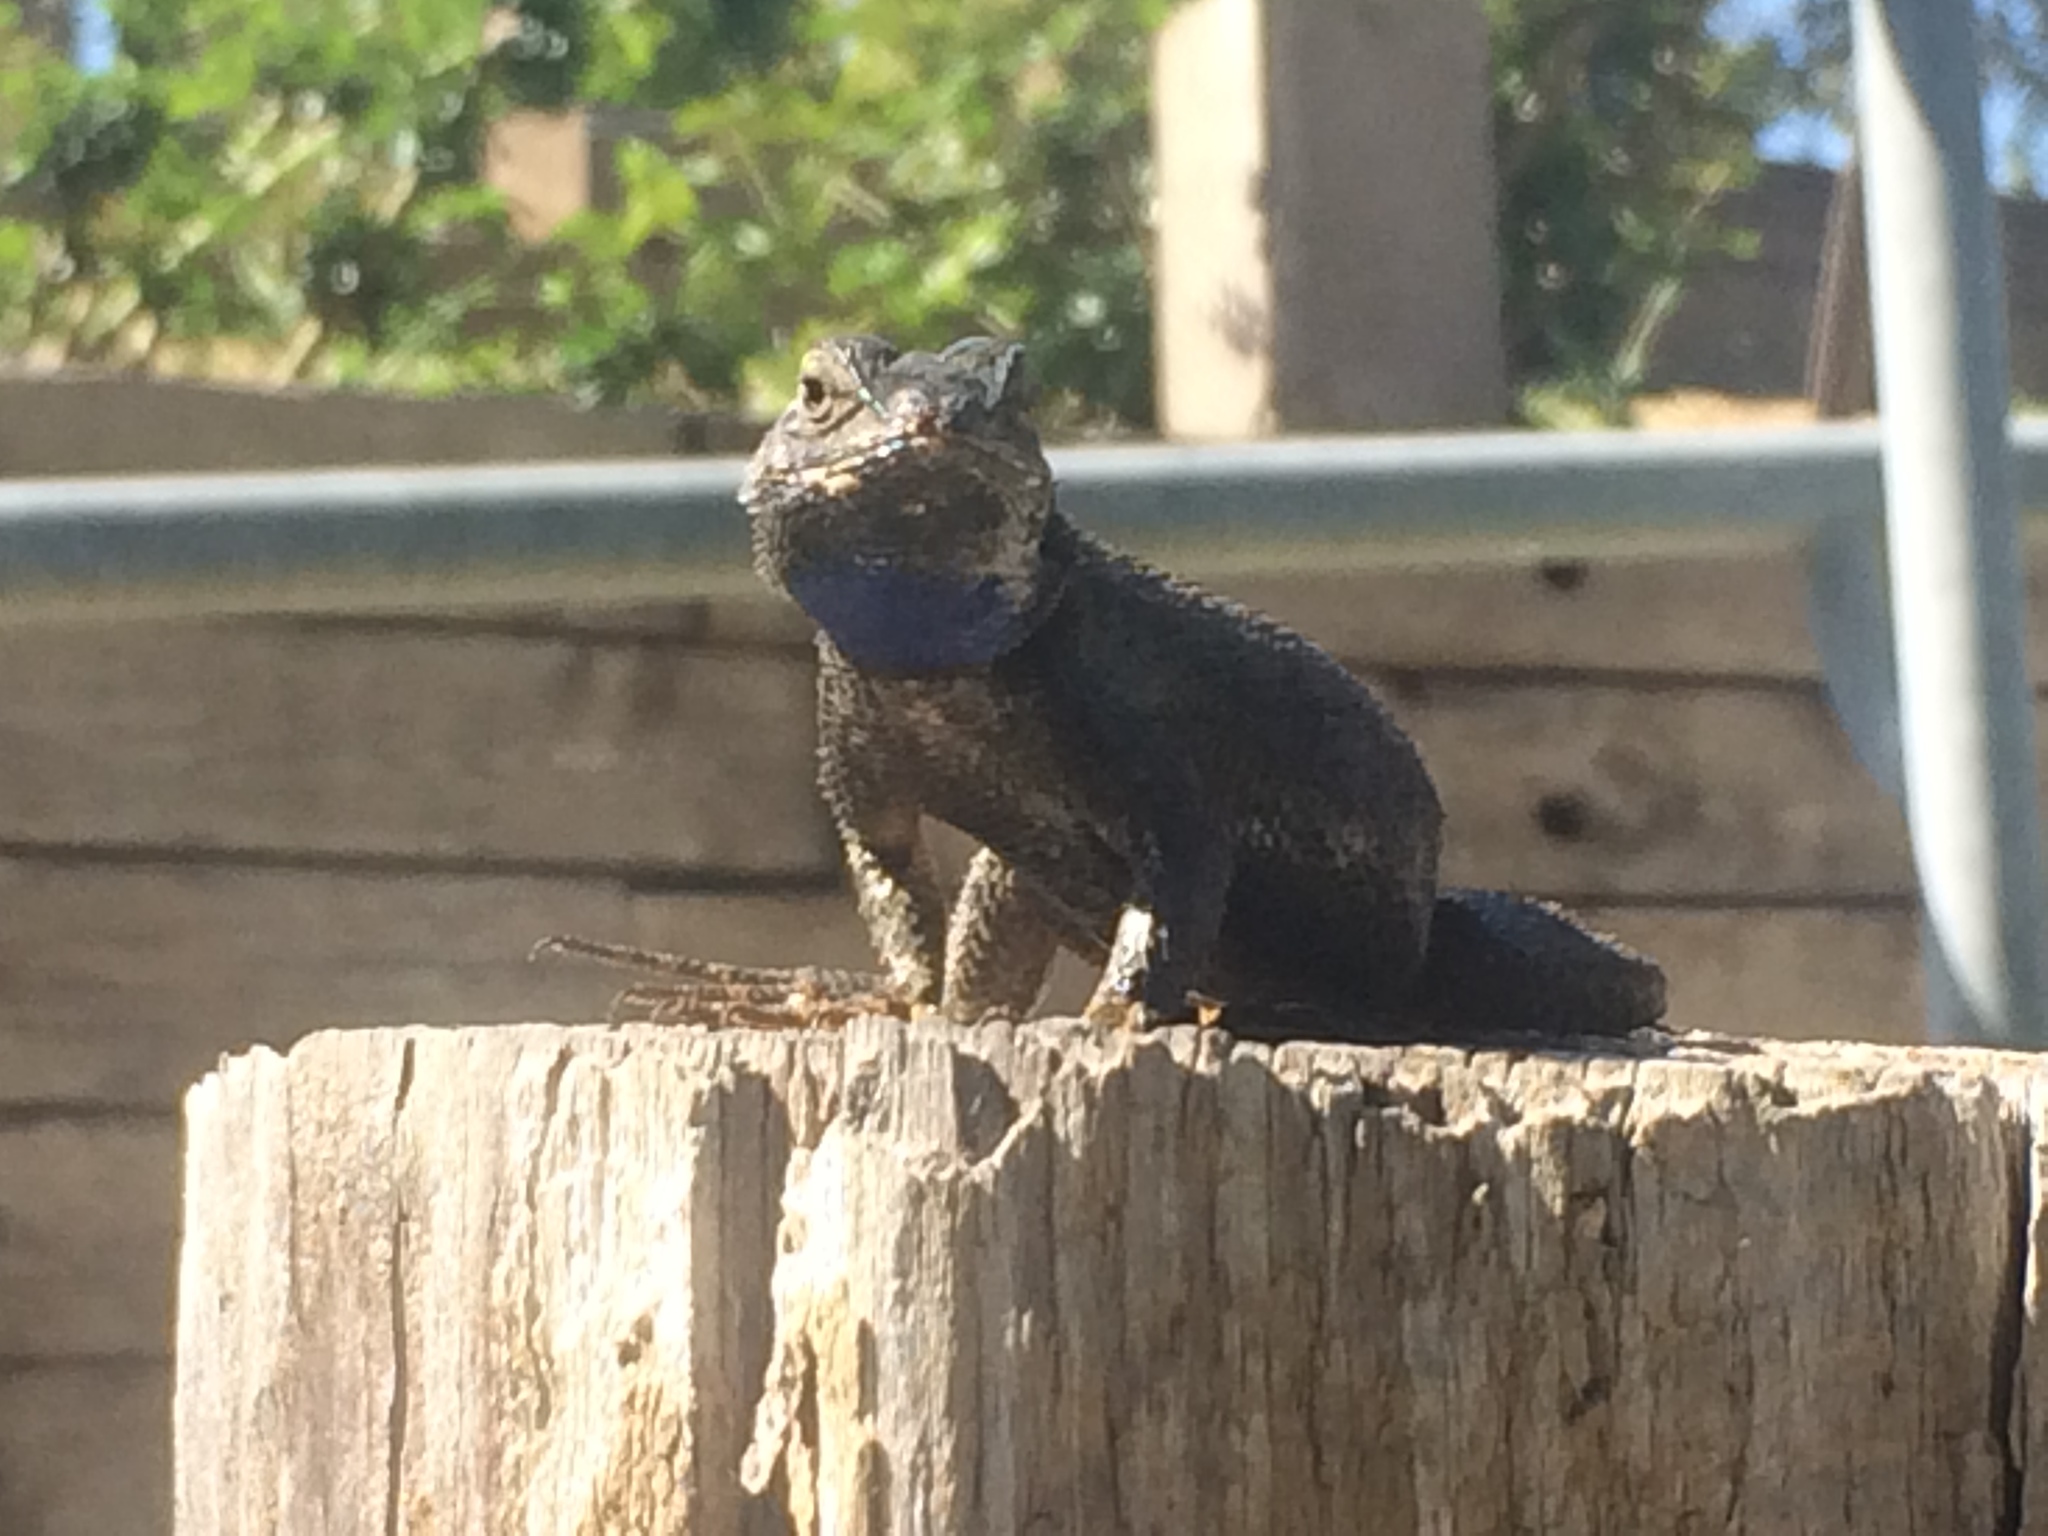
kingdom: Animalia
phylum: Chordata
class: Squamata
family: Phrynosomatidae
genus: Sceloporus
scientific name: Sceloporus orcutti
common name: Granite spiny lizard
